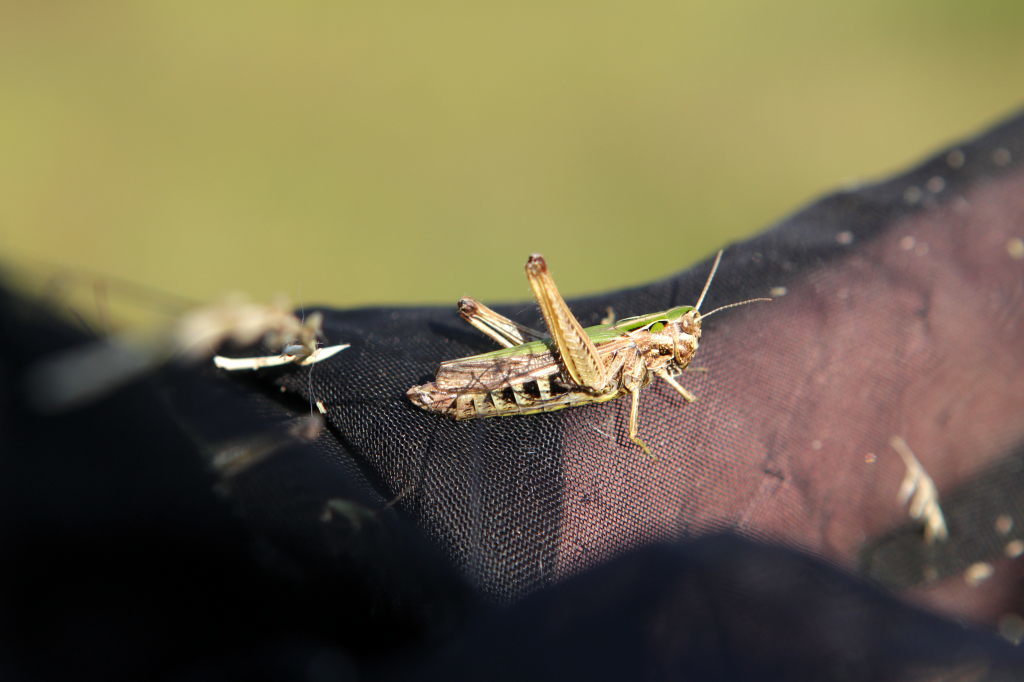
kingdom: Animalia
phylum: Arthropoda
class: Insecta
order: Orthoptera
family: Acrididae
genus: Omocestus
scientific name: Omocestus viridulus
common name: Common green grasshopper
